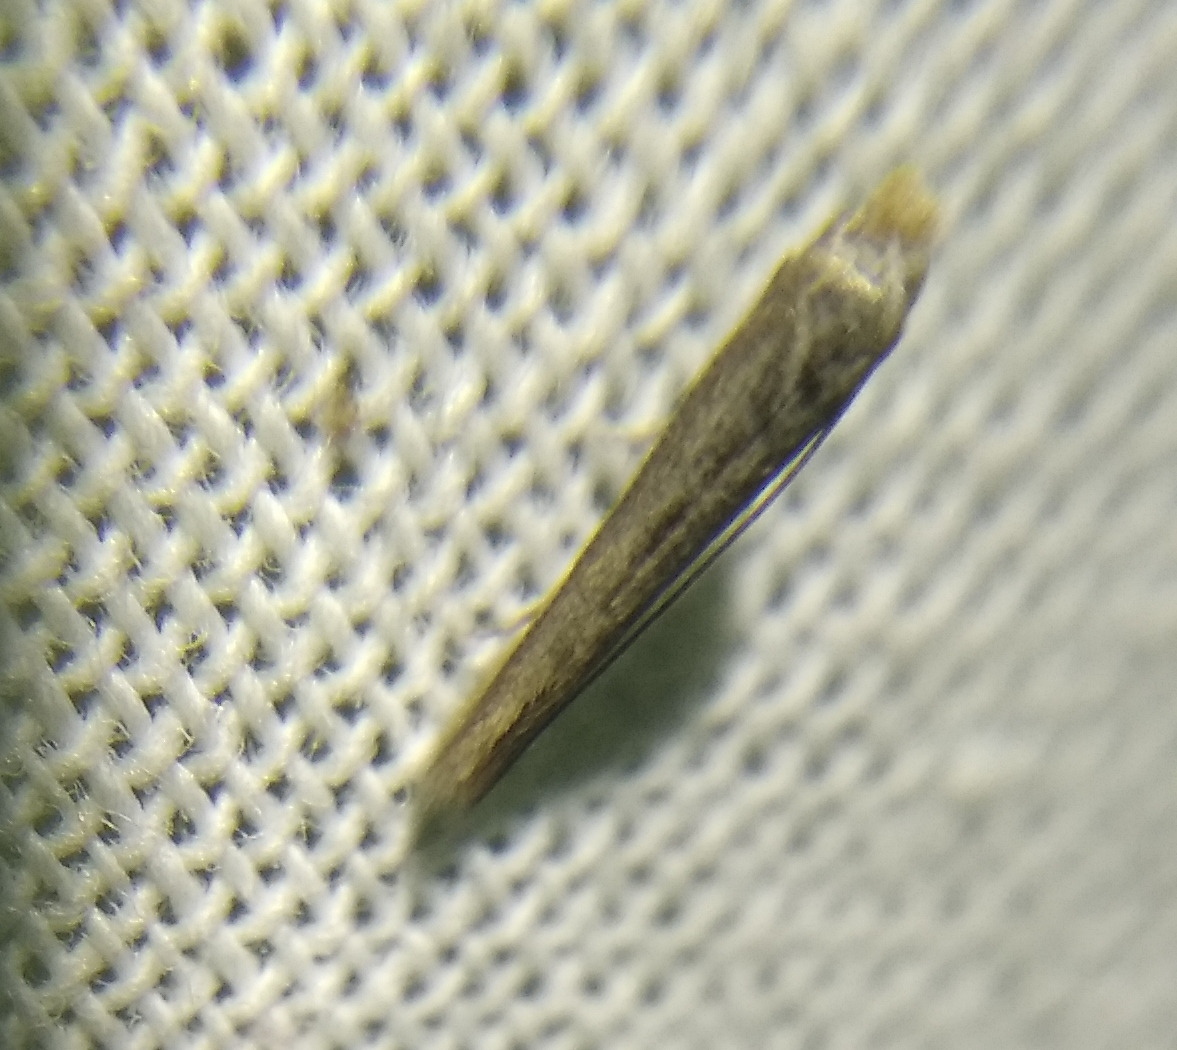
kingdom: Animalia
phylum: Arthropoda
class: Insecta
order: Lepidoptera
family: Bedelliidae
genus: Bedellia
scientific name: Bedellia somnulentella
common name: Morning-glory leafminer moth
